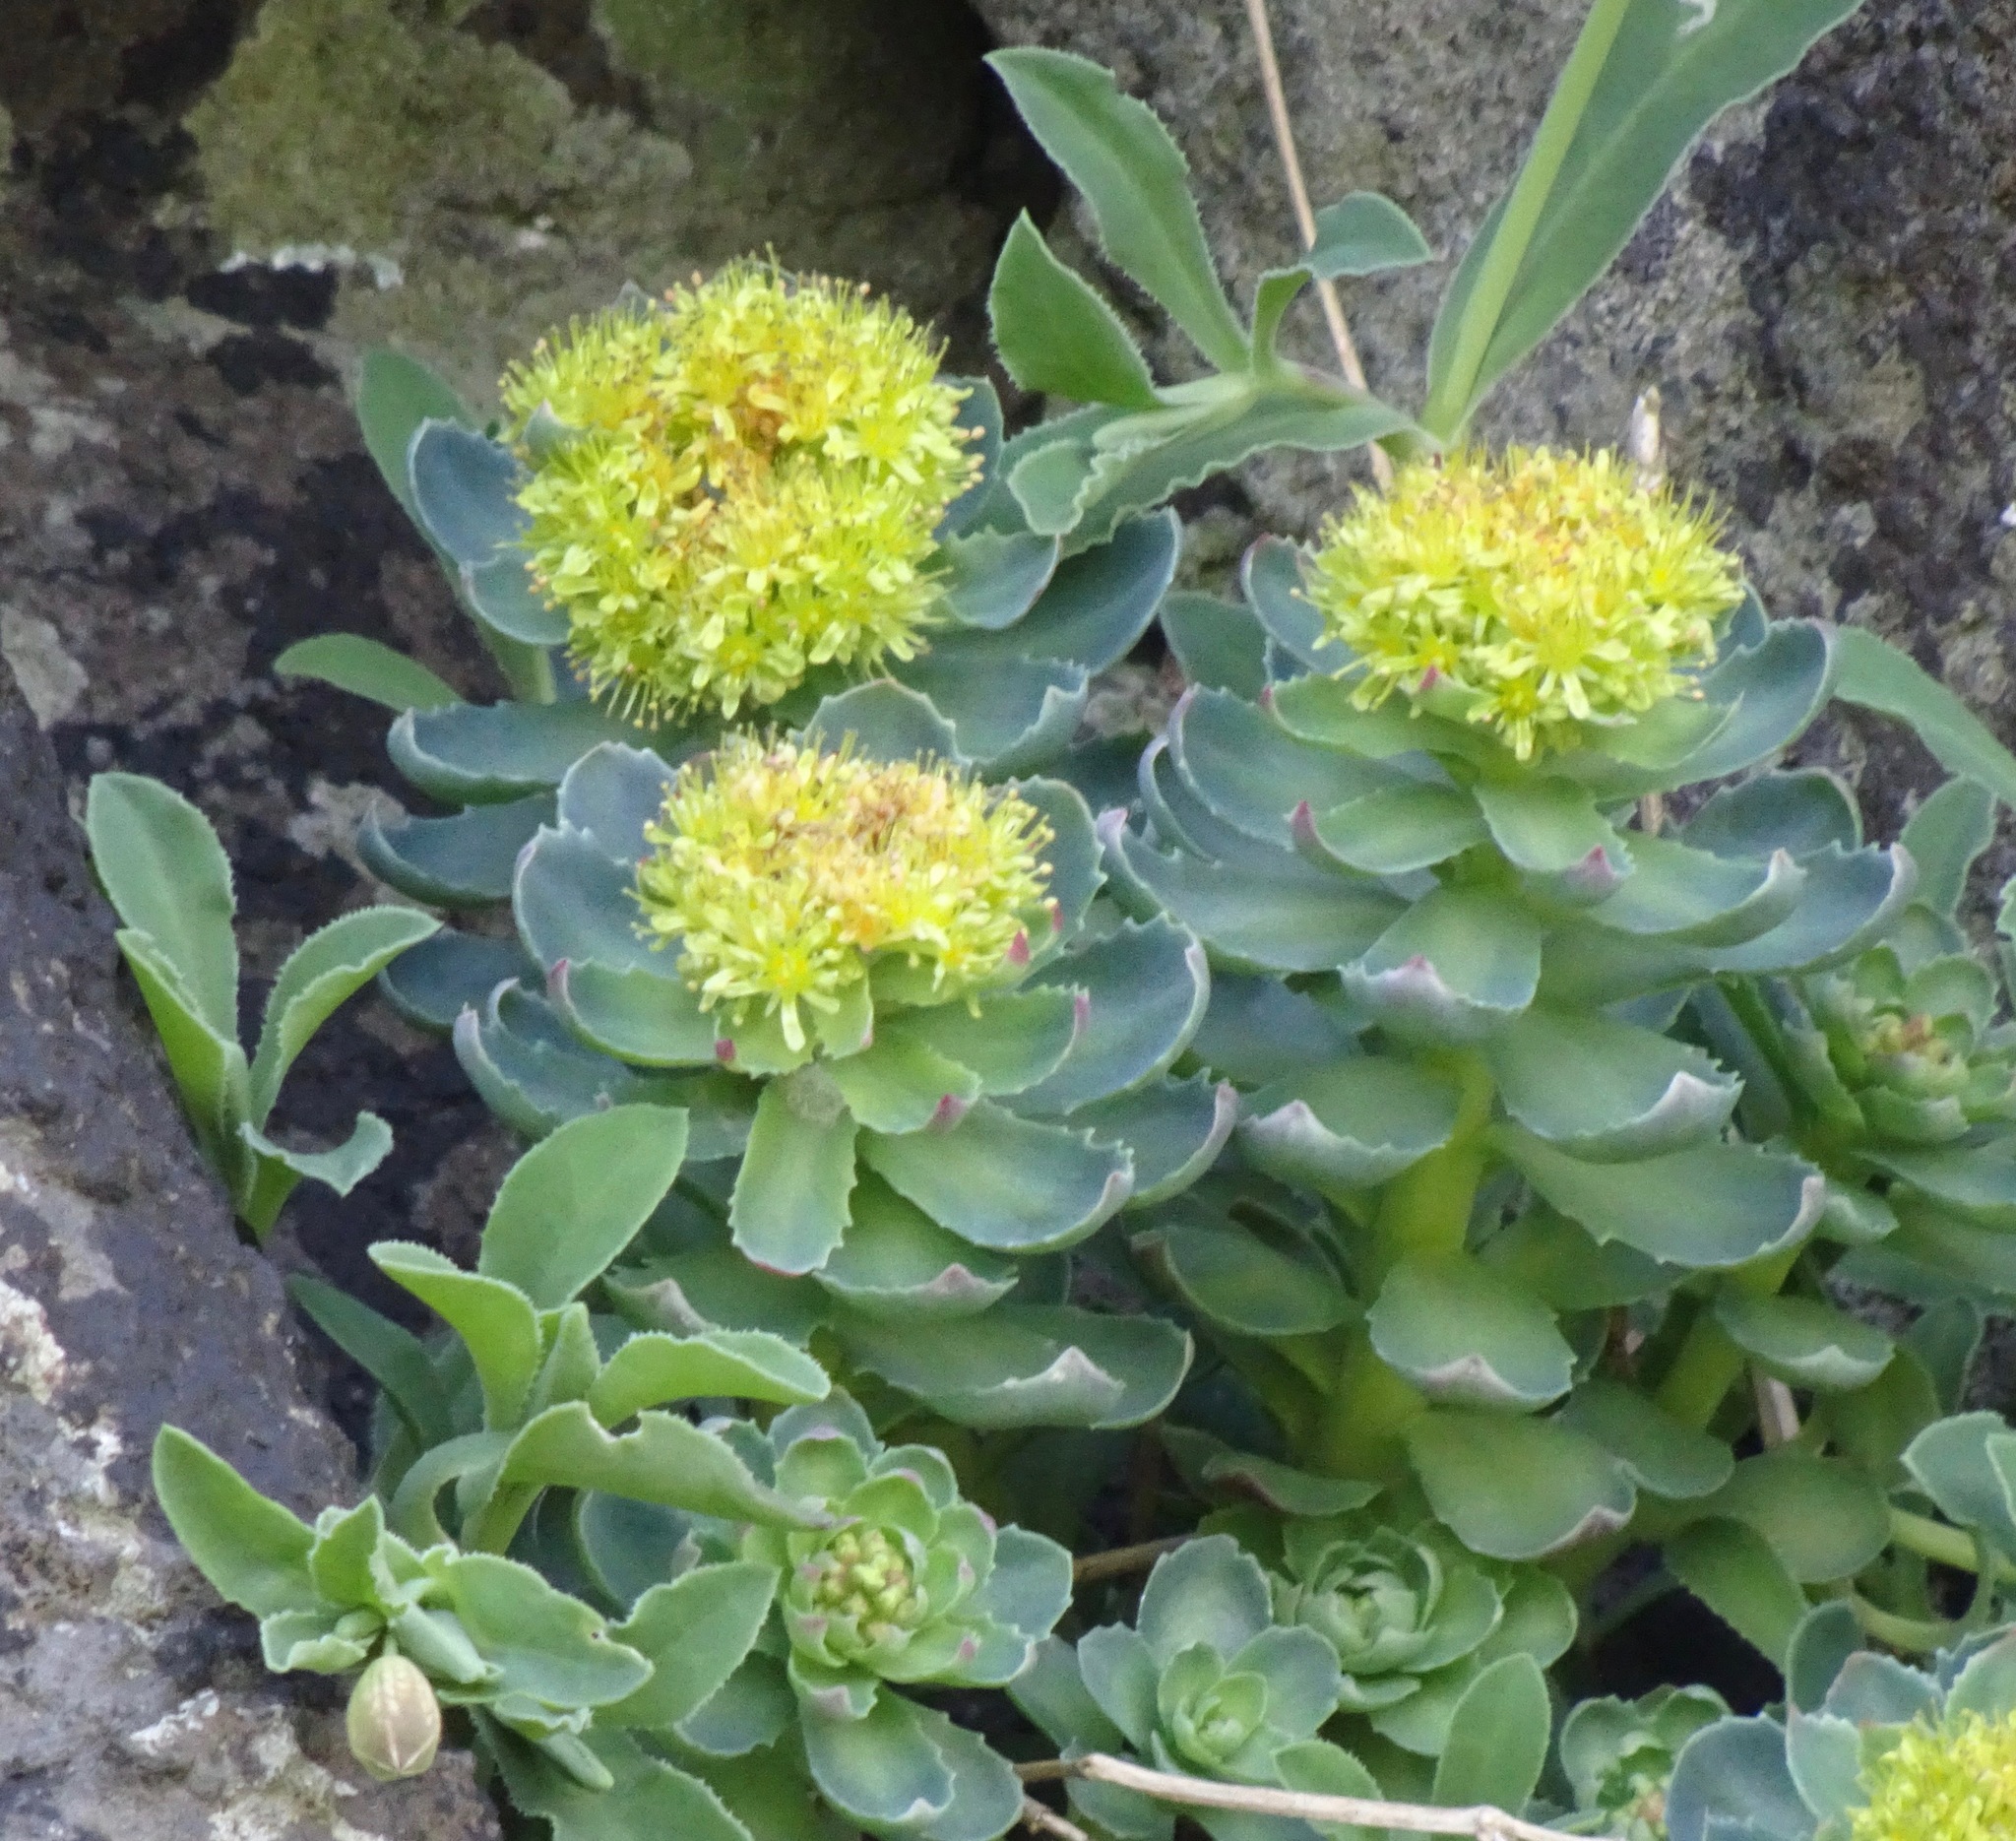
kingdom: Plantae
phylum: Tracheophyta
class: Magnoliopsida
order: Saxifragales
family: Crassulaceae
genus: Rhodiola
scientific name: Rhodiola rosea
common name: Roseroot
